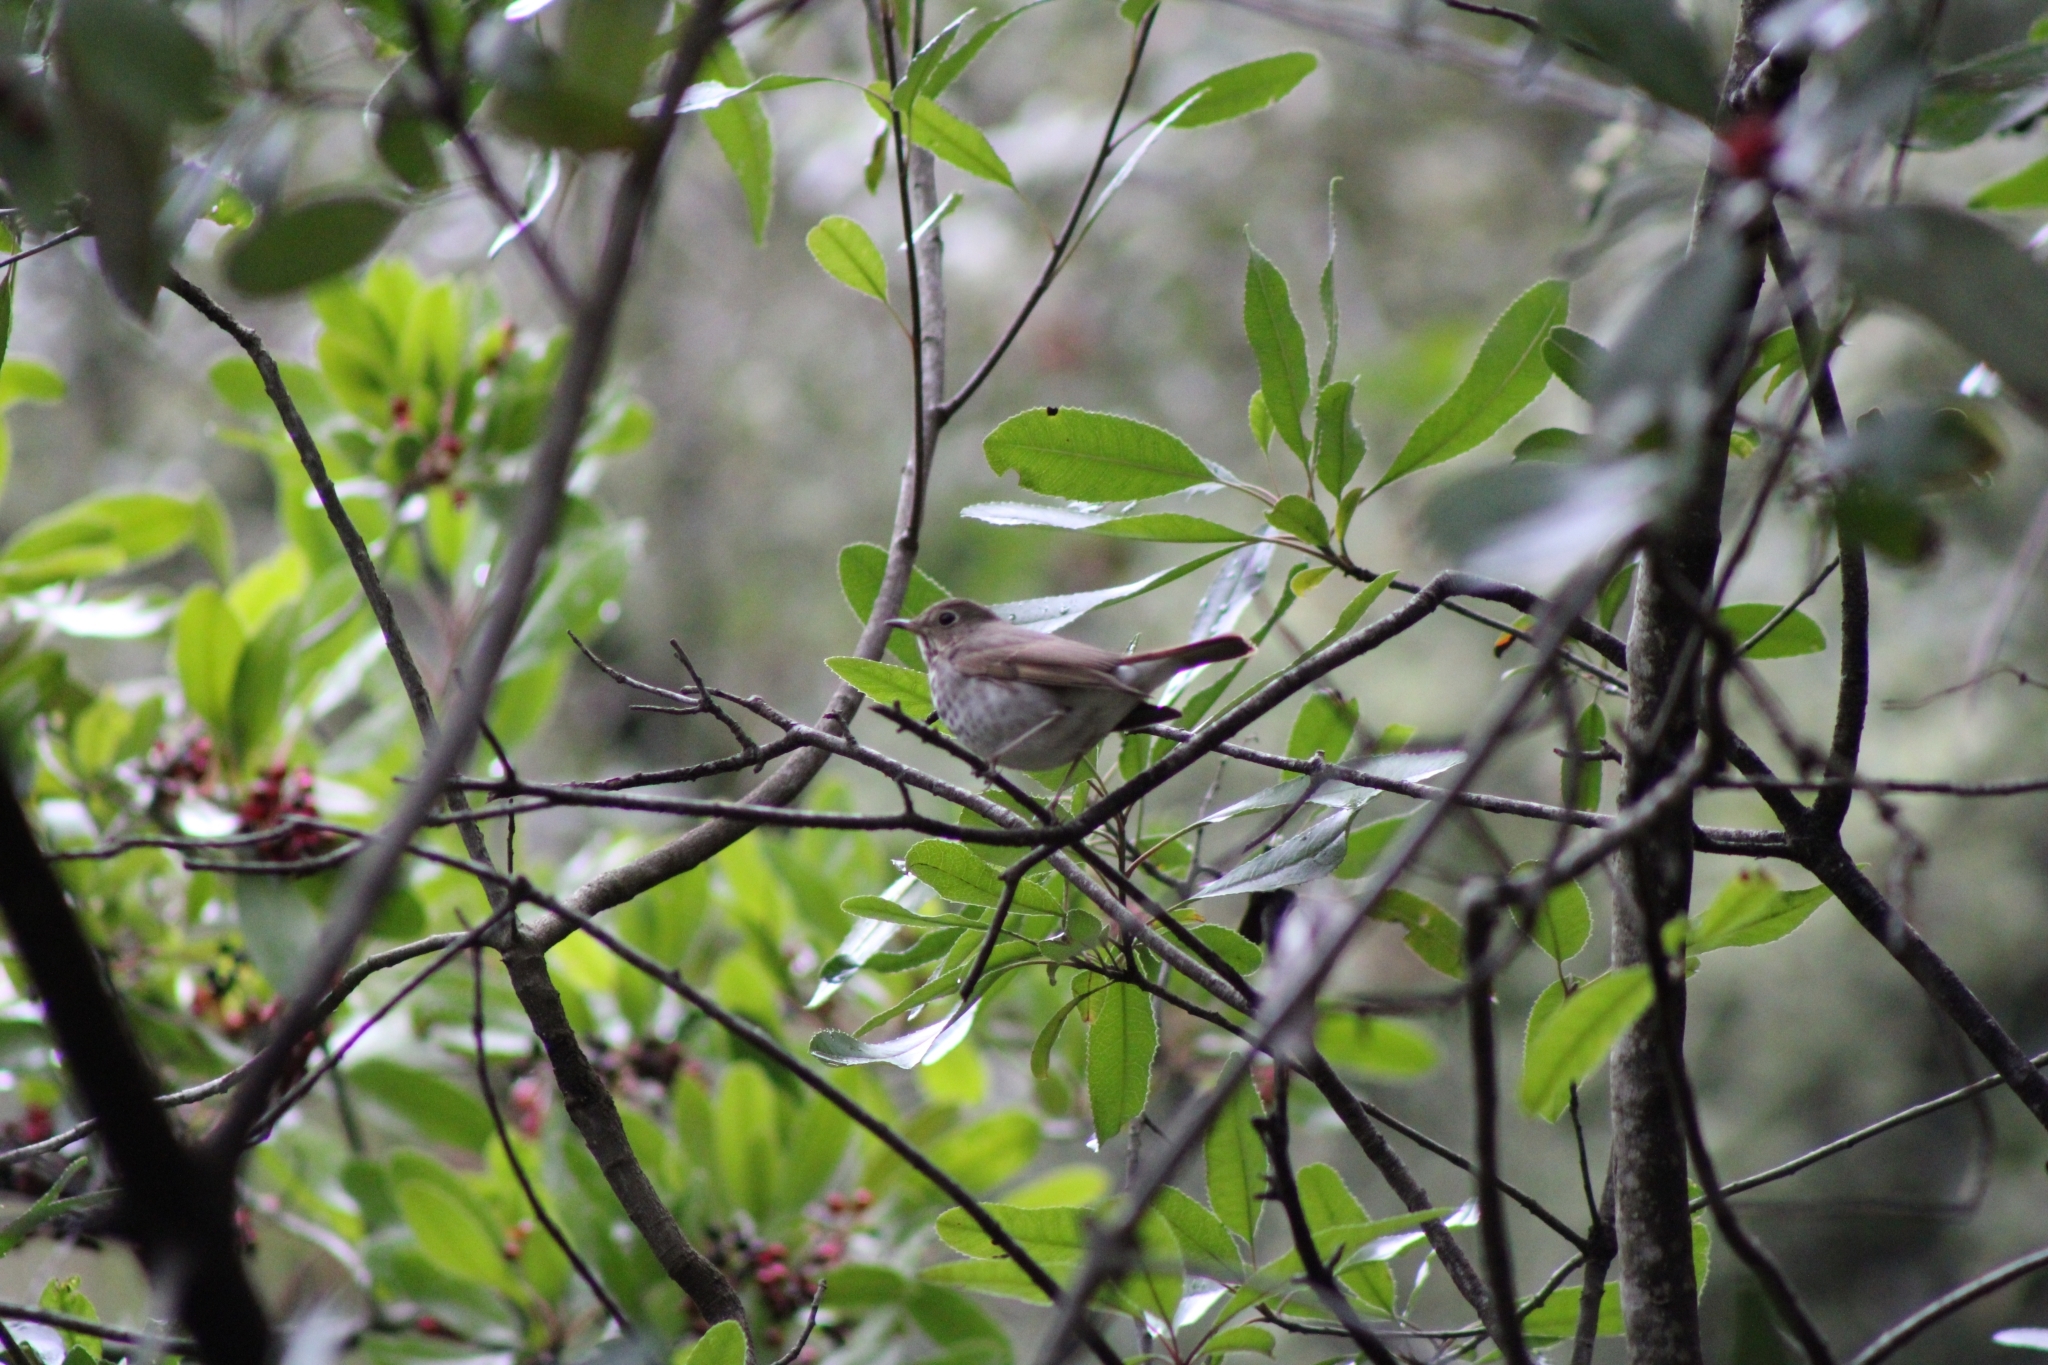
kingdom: Animalia
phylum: Chordata
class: Aves
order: Passeriformes
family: Turdidae
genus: Catharus
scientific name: Catharus ustulatus
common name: Swainson's thrush
